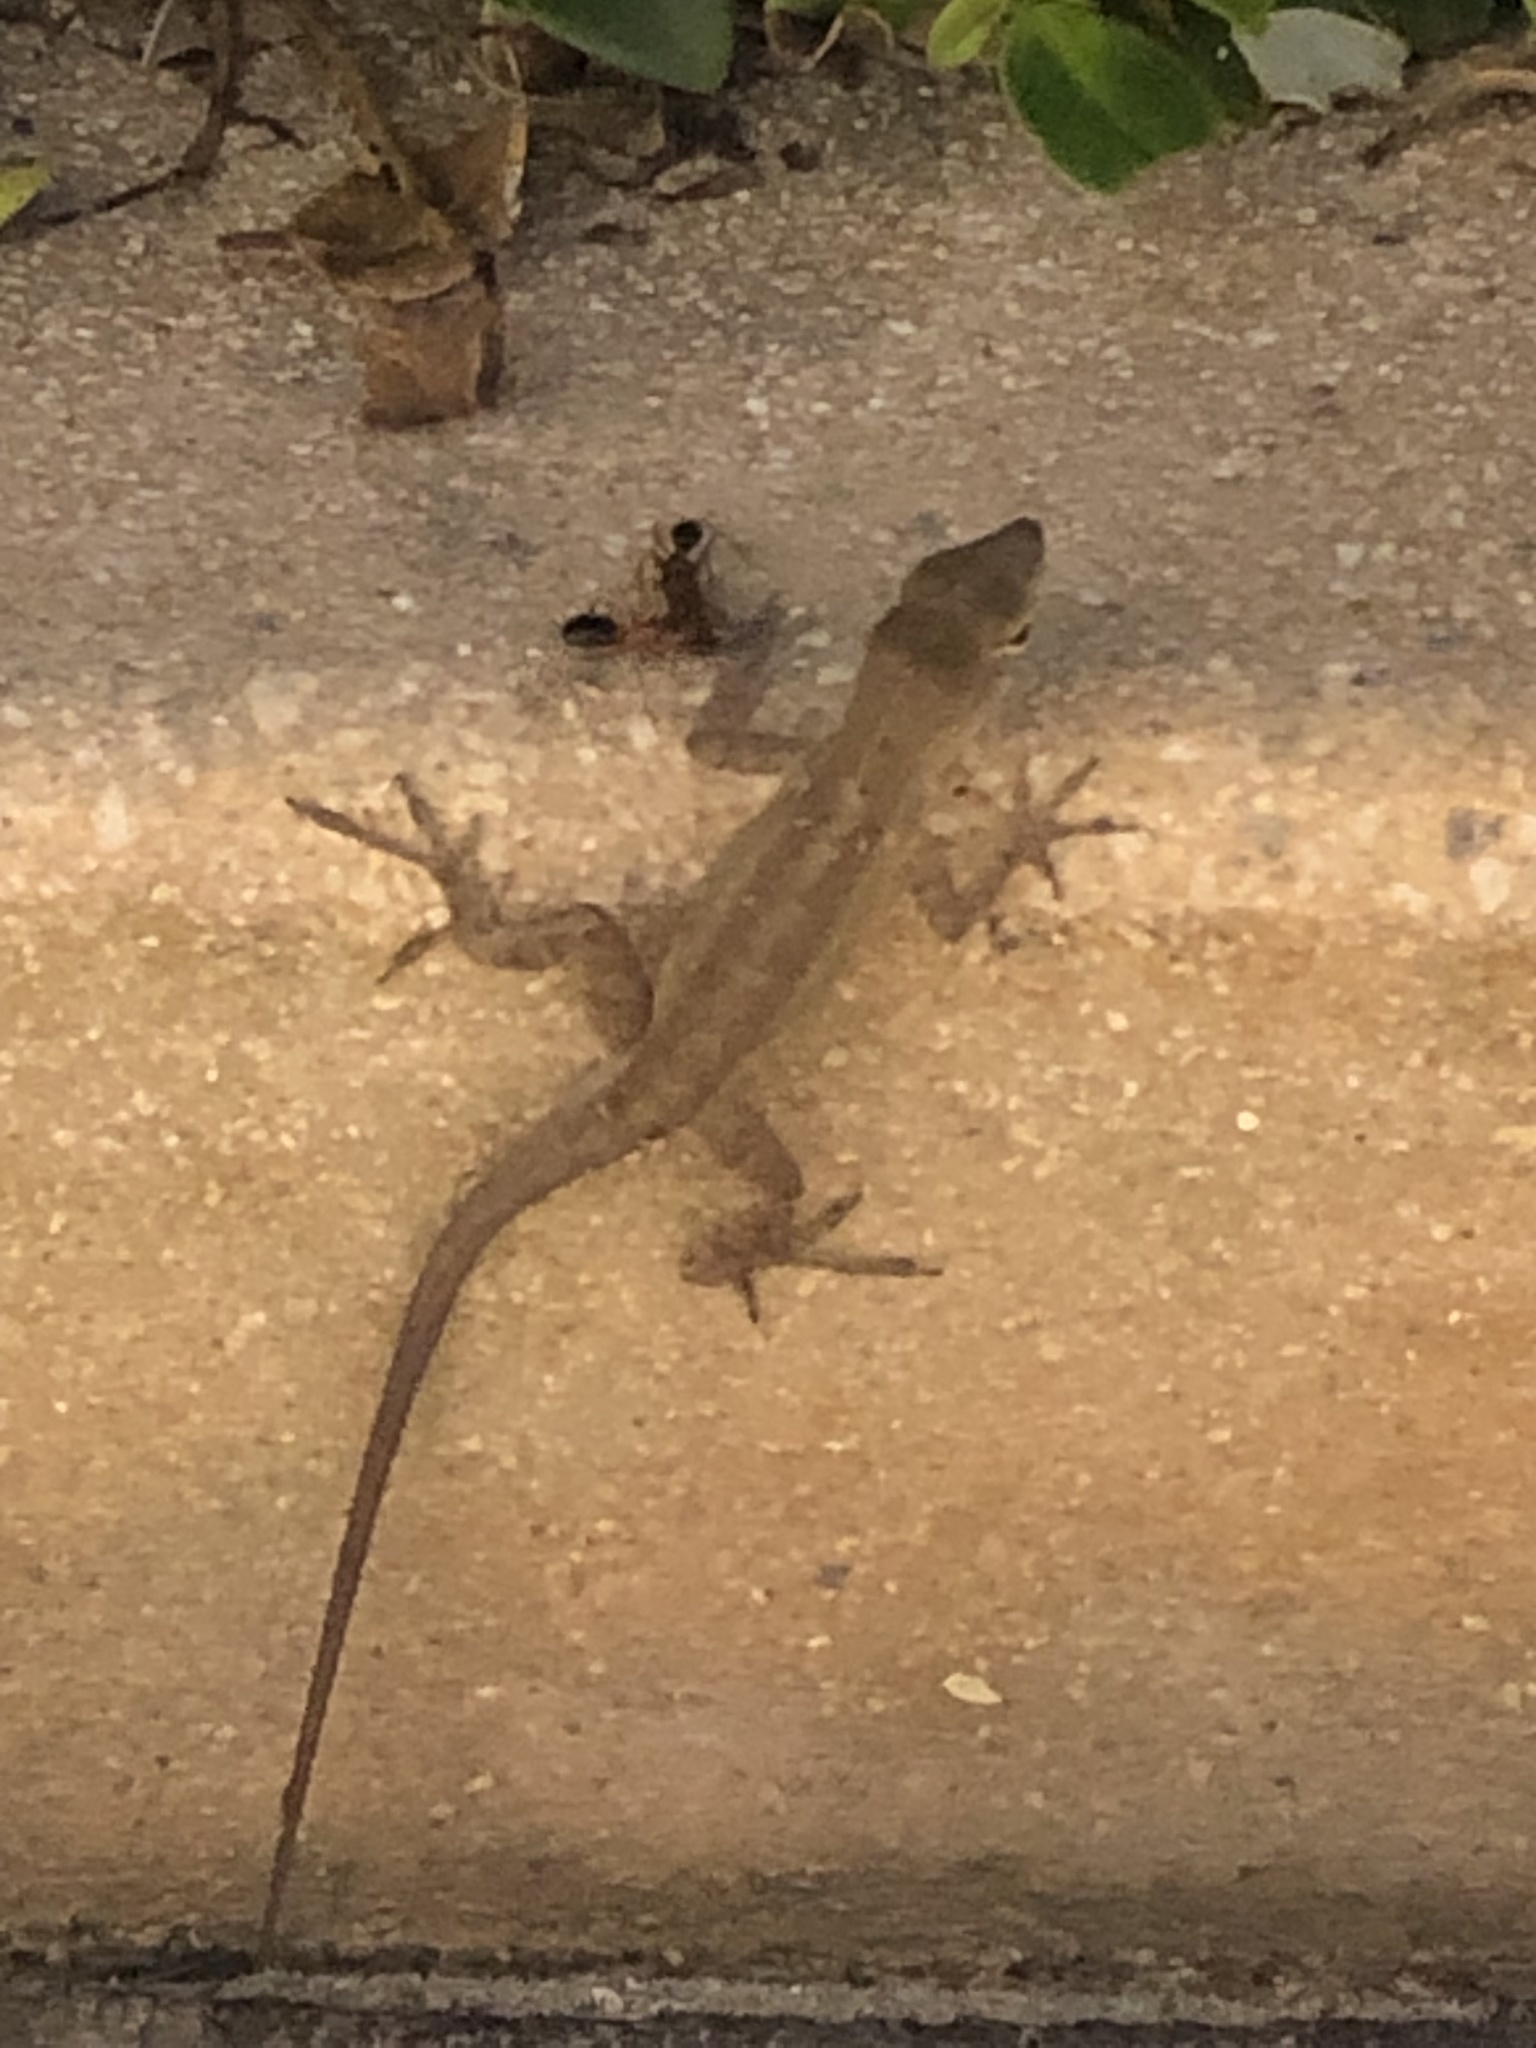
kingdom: Animalia
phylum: Chordata
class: Squamata
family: Dactyloidae
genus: Anolis
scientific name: Anolis sagrei
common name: Brown anole
